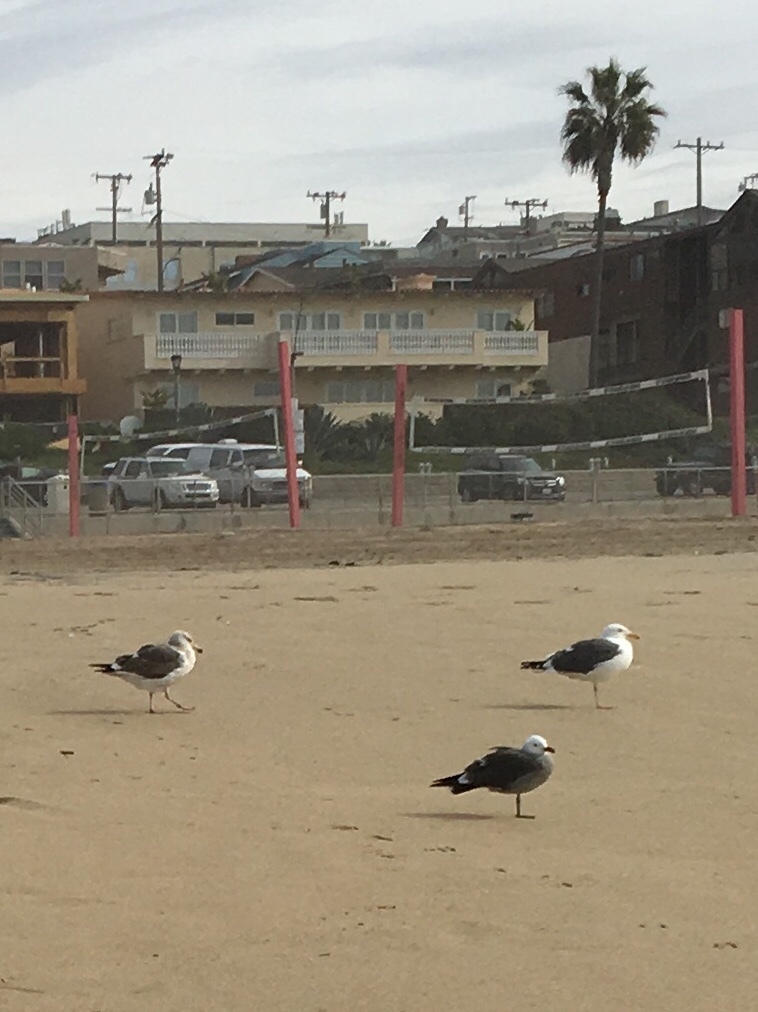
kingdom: Animalia
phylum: Chordata
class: Aves
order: Charadriiformes
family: Laridae
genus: Larus
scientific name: Larus heermanni
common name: Heermann's gull
